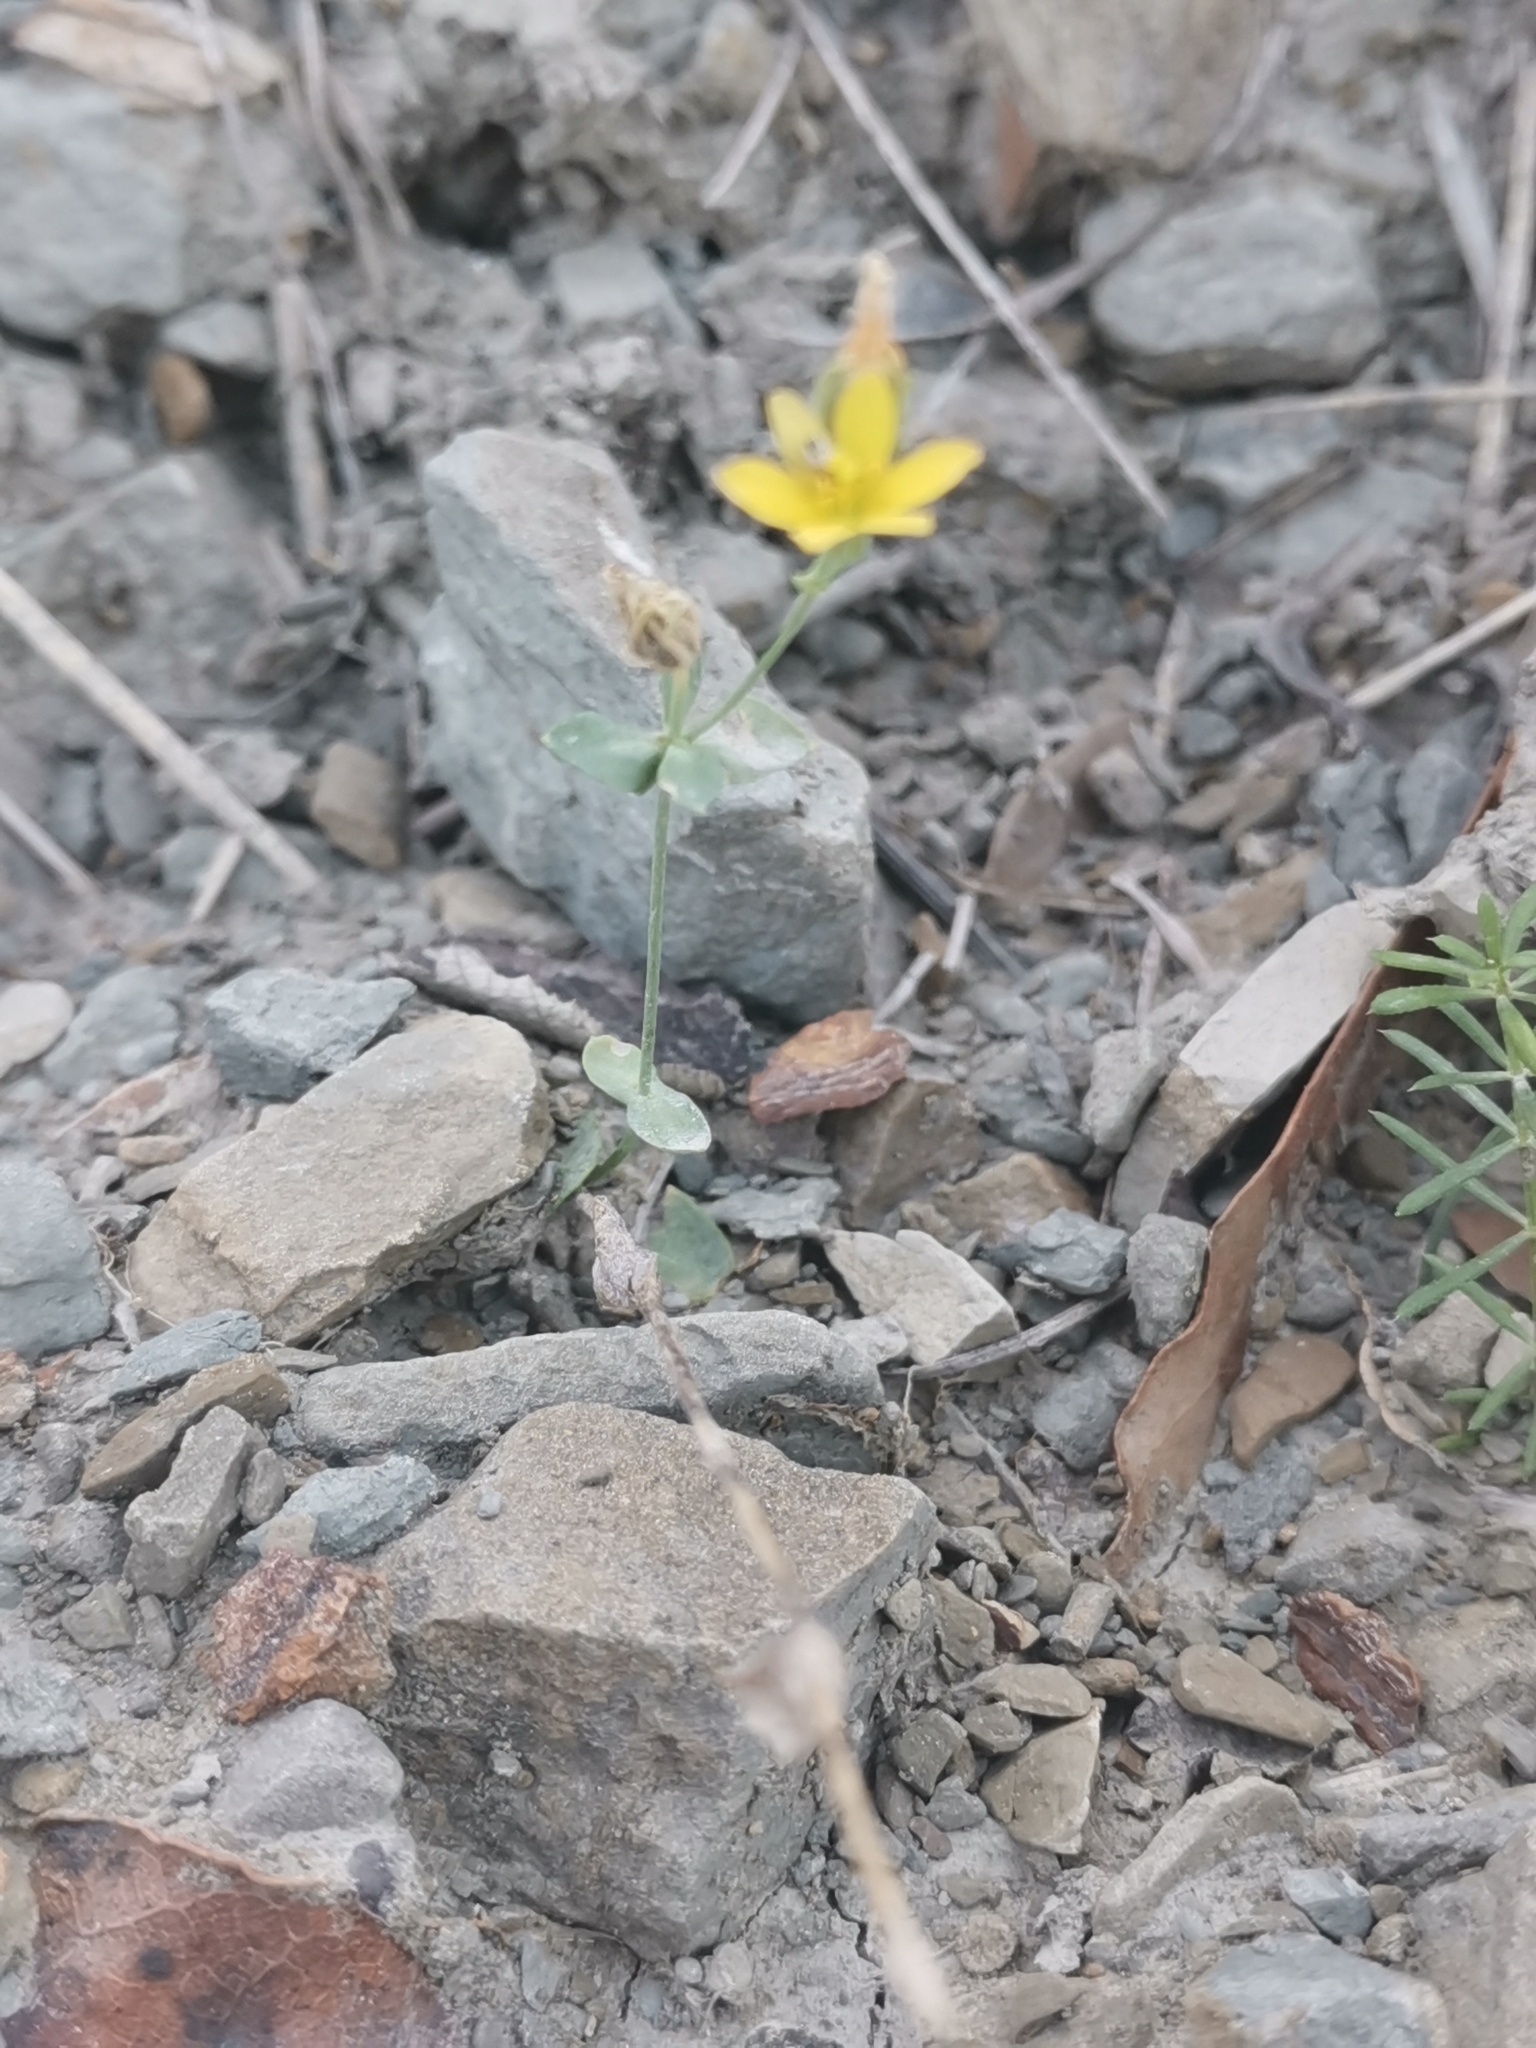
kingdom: Plantae
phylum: Tracheophyta
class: Magnoliopsida
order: Gentianales
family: Gentianaceae
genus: Blackstonia
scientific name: Blackstonia perfoliata
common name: Yellow-wort
